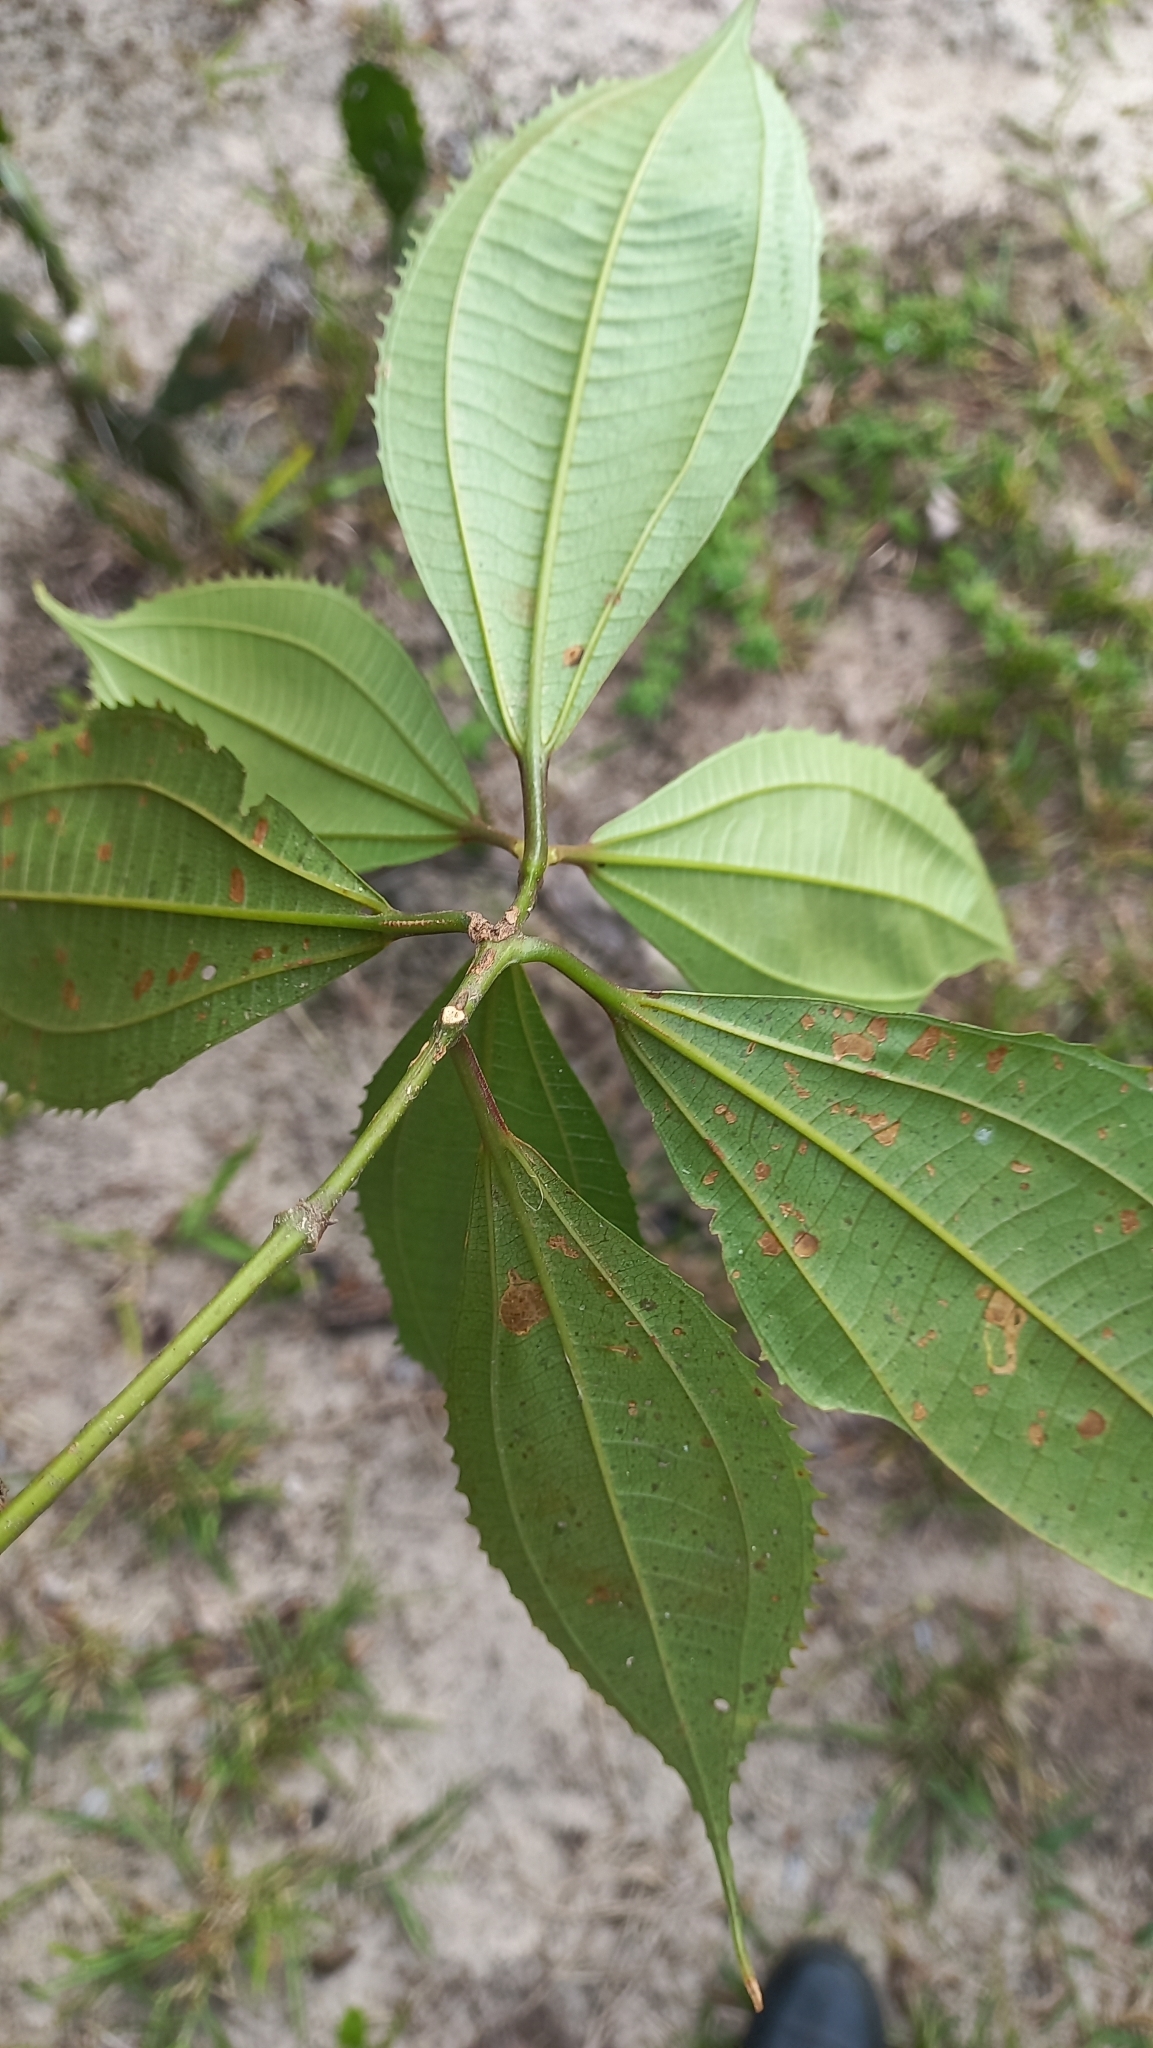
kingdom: Plantae
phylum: Tracheophyta
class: Magnoliopsida
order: Myrtales
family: Melastomataceae
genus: Miconia
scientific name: Miconia pusilliflora
